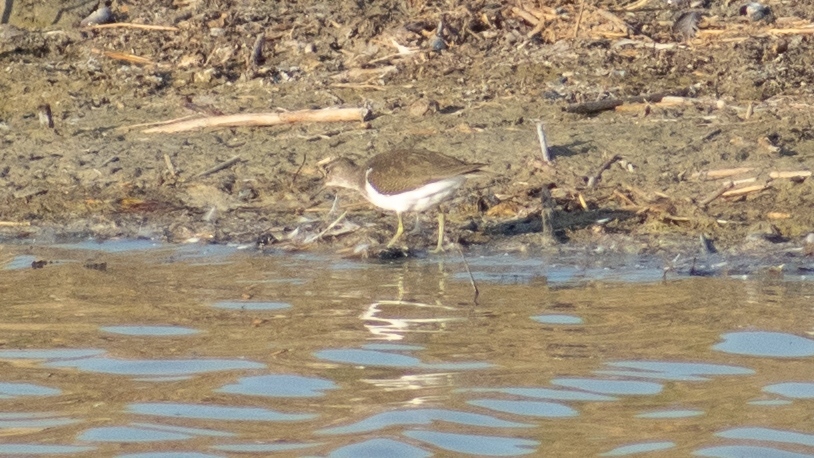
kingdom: Animalia
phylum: Chordata
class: Aves
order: Charadriiformes
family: Scolopacidae
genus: Actitis
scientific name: Actitis hypoleucos
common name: Common sandpiper
